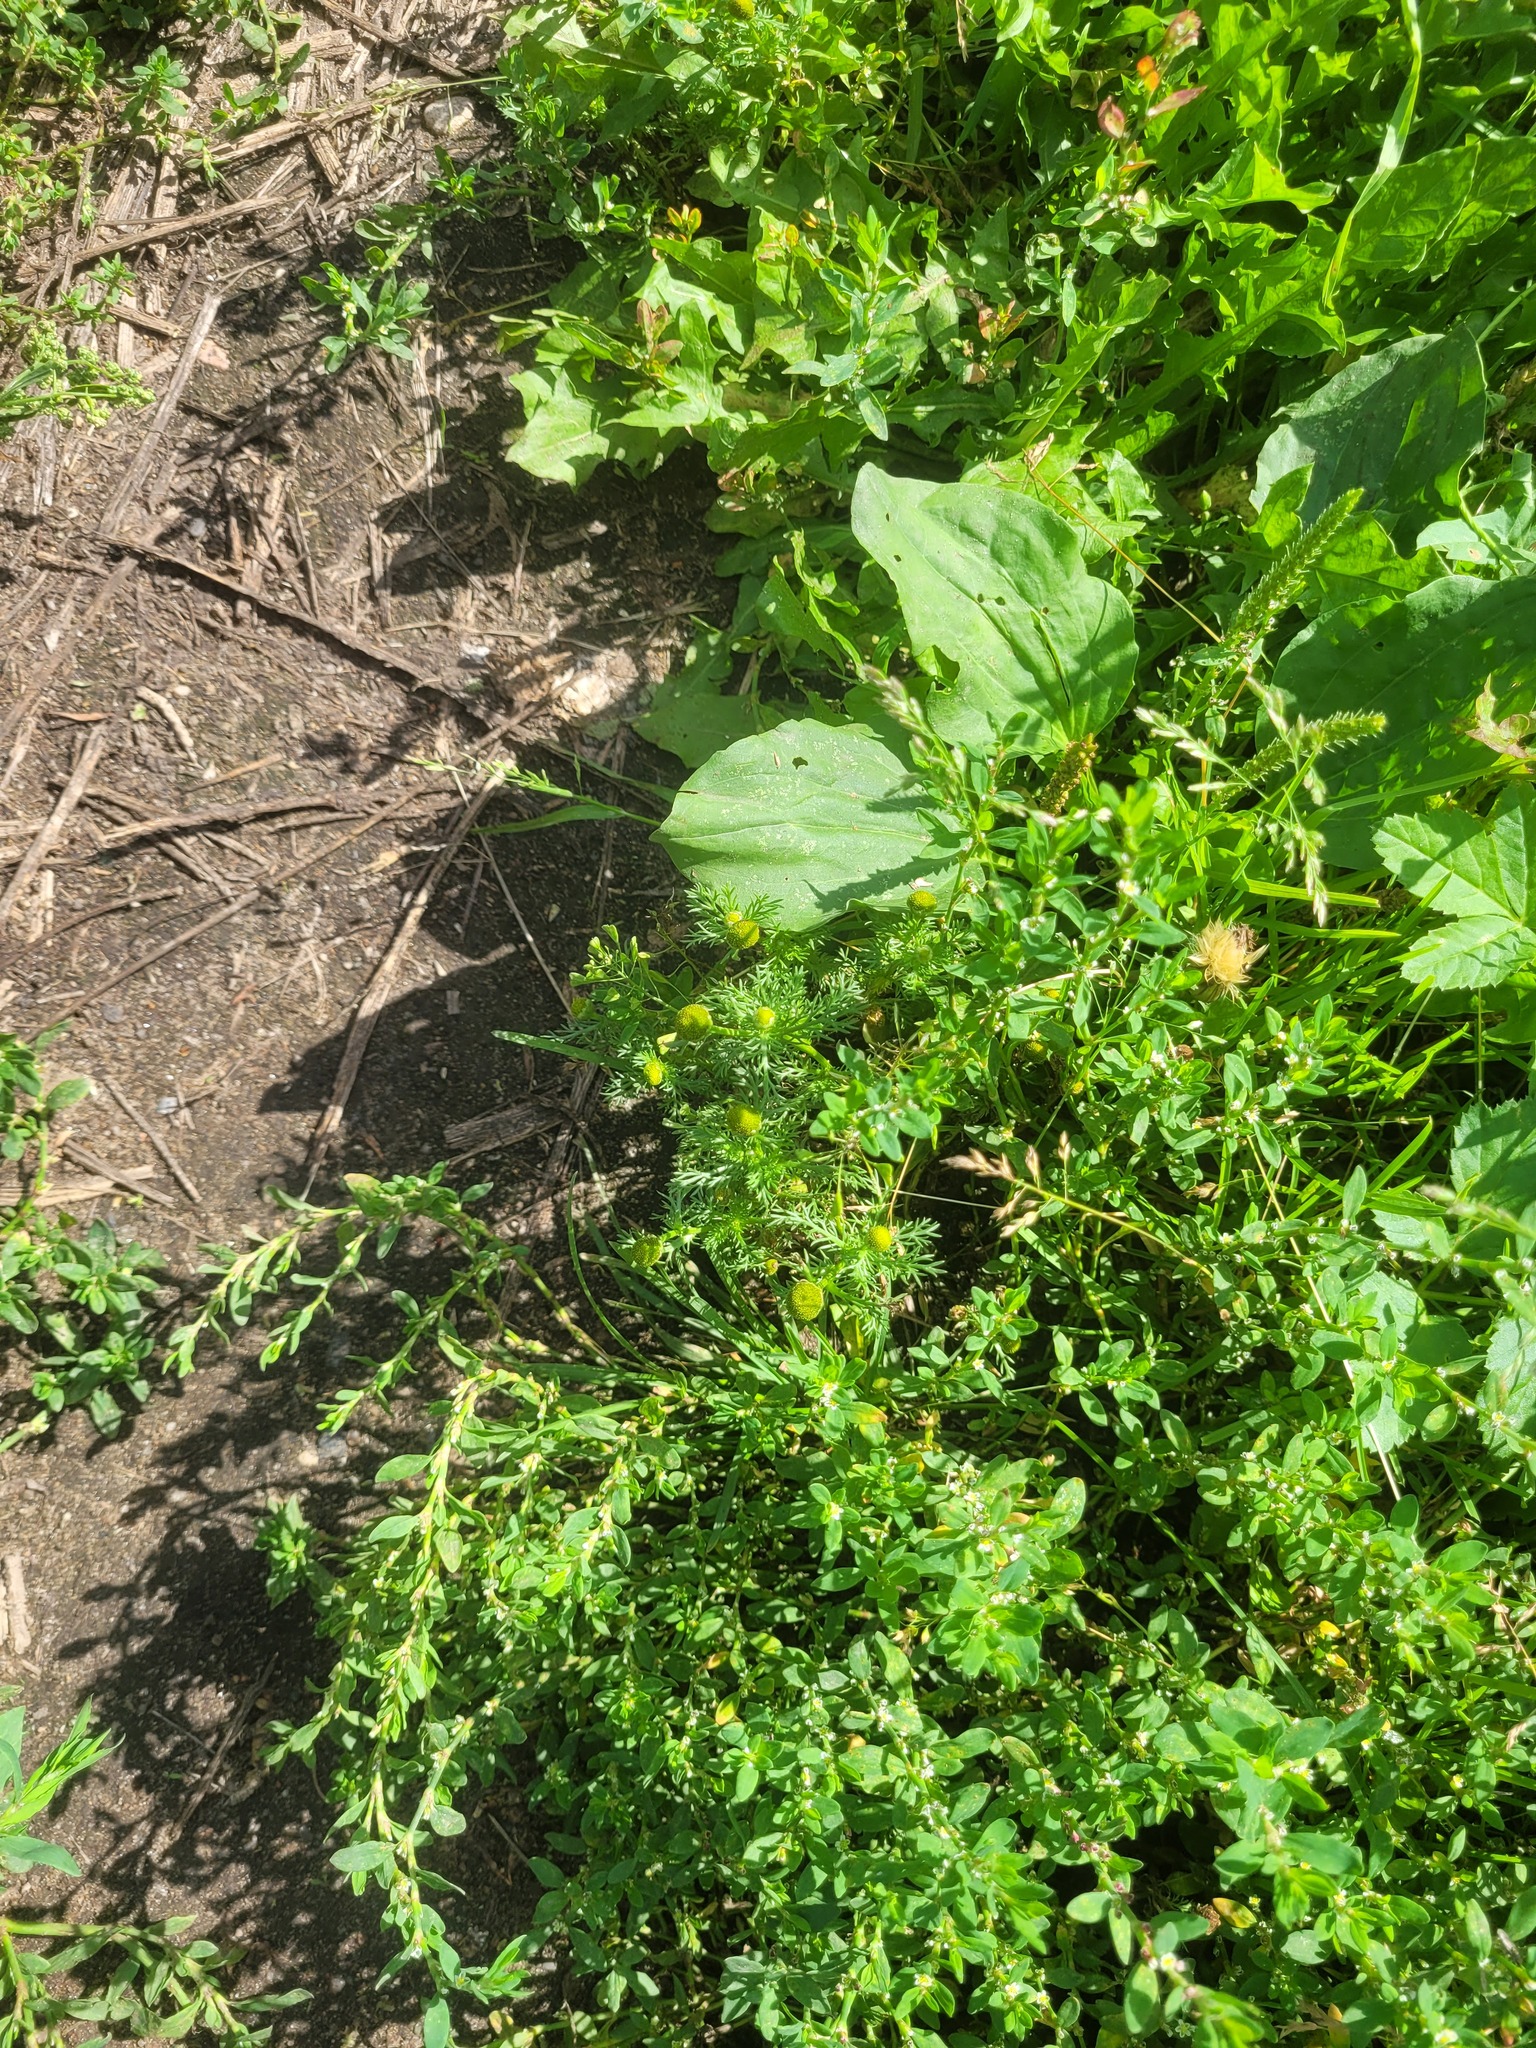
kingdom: Plantae
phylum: Tracheophyta
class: Magnoliopsida
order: Asterales
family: Asteraceae
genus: Matricaria
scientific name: Matricaria discoidea
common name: Disc mayweed
